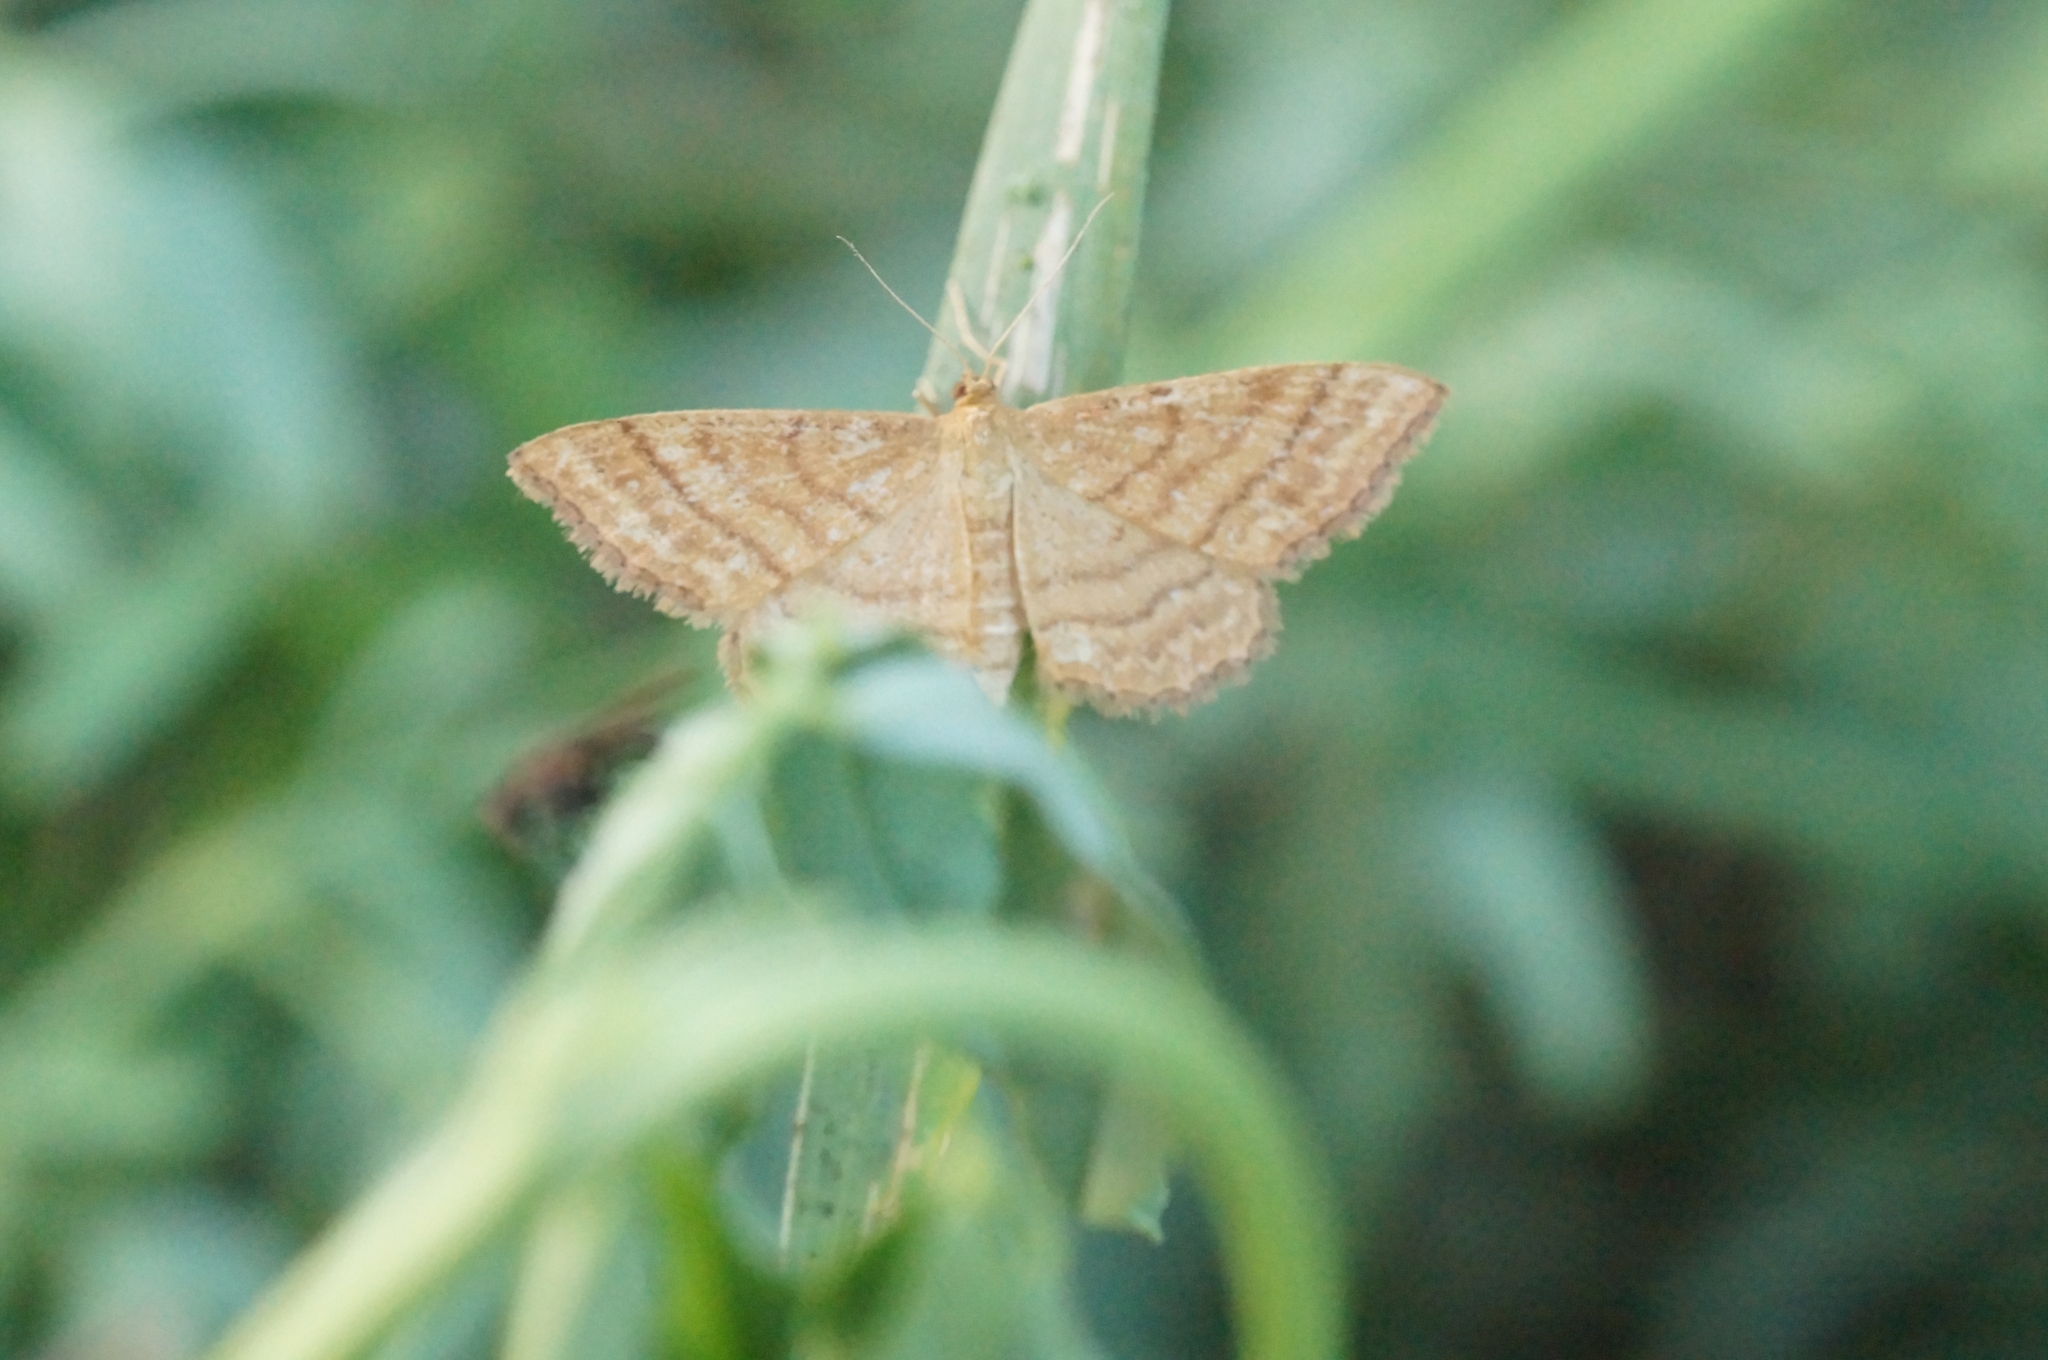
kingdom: Animalia
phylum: Arthropoda
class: Insecta
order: Lepidoptera
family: Geometridae
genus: Idaea
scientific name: Idaea ochrata
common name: Bright wave
